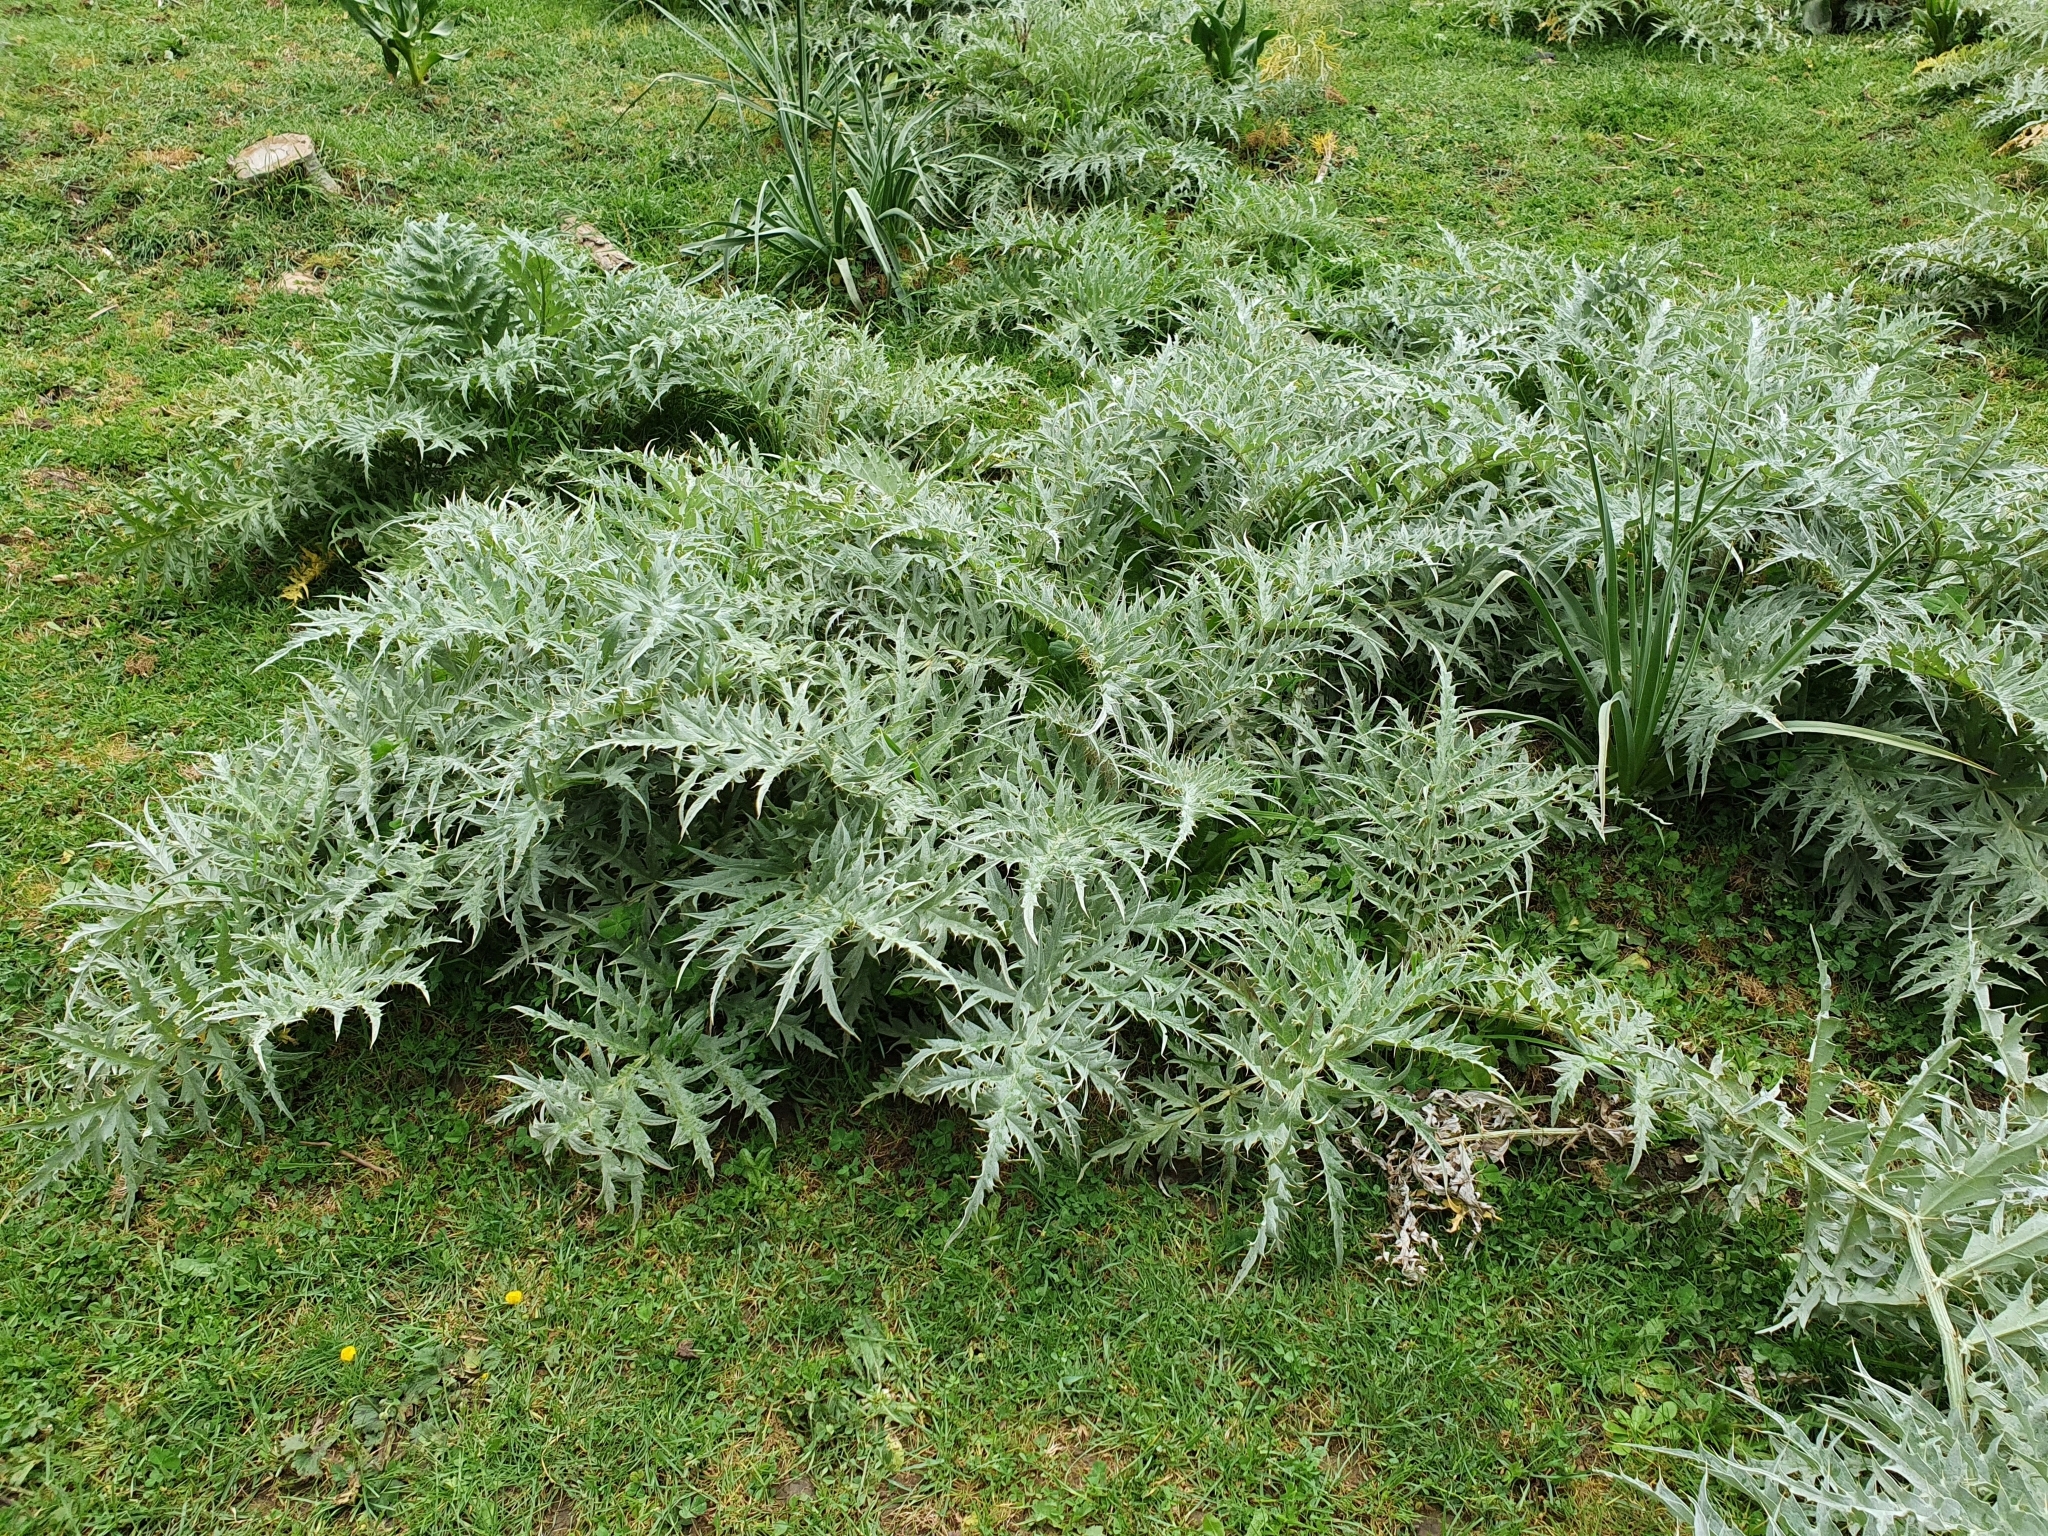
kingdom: Plantae
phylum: Tracheophyta
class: Magnoliopsida
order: Asterales
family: Asteraceae
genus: Cynara
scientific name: Cynara cardunculus
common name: Globe artichoke
